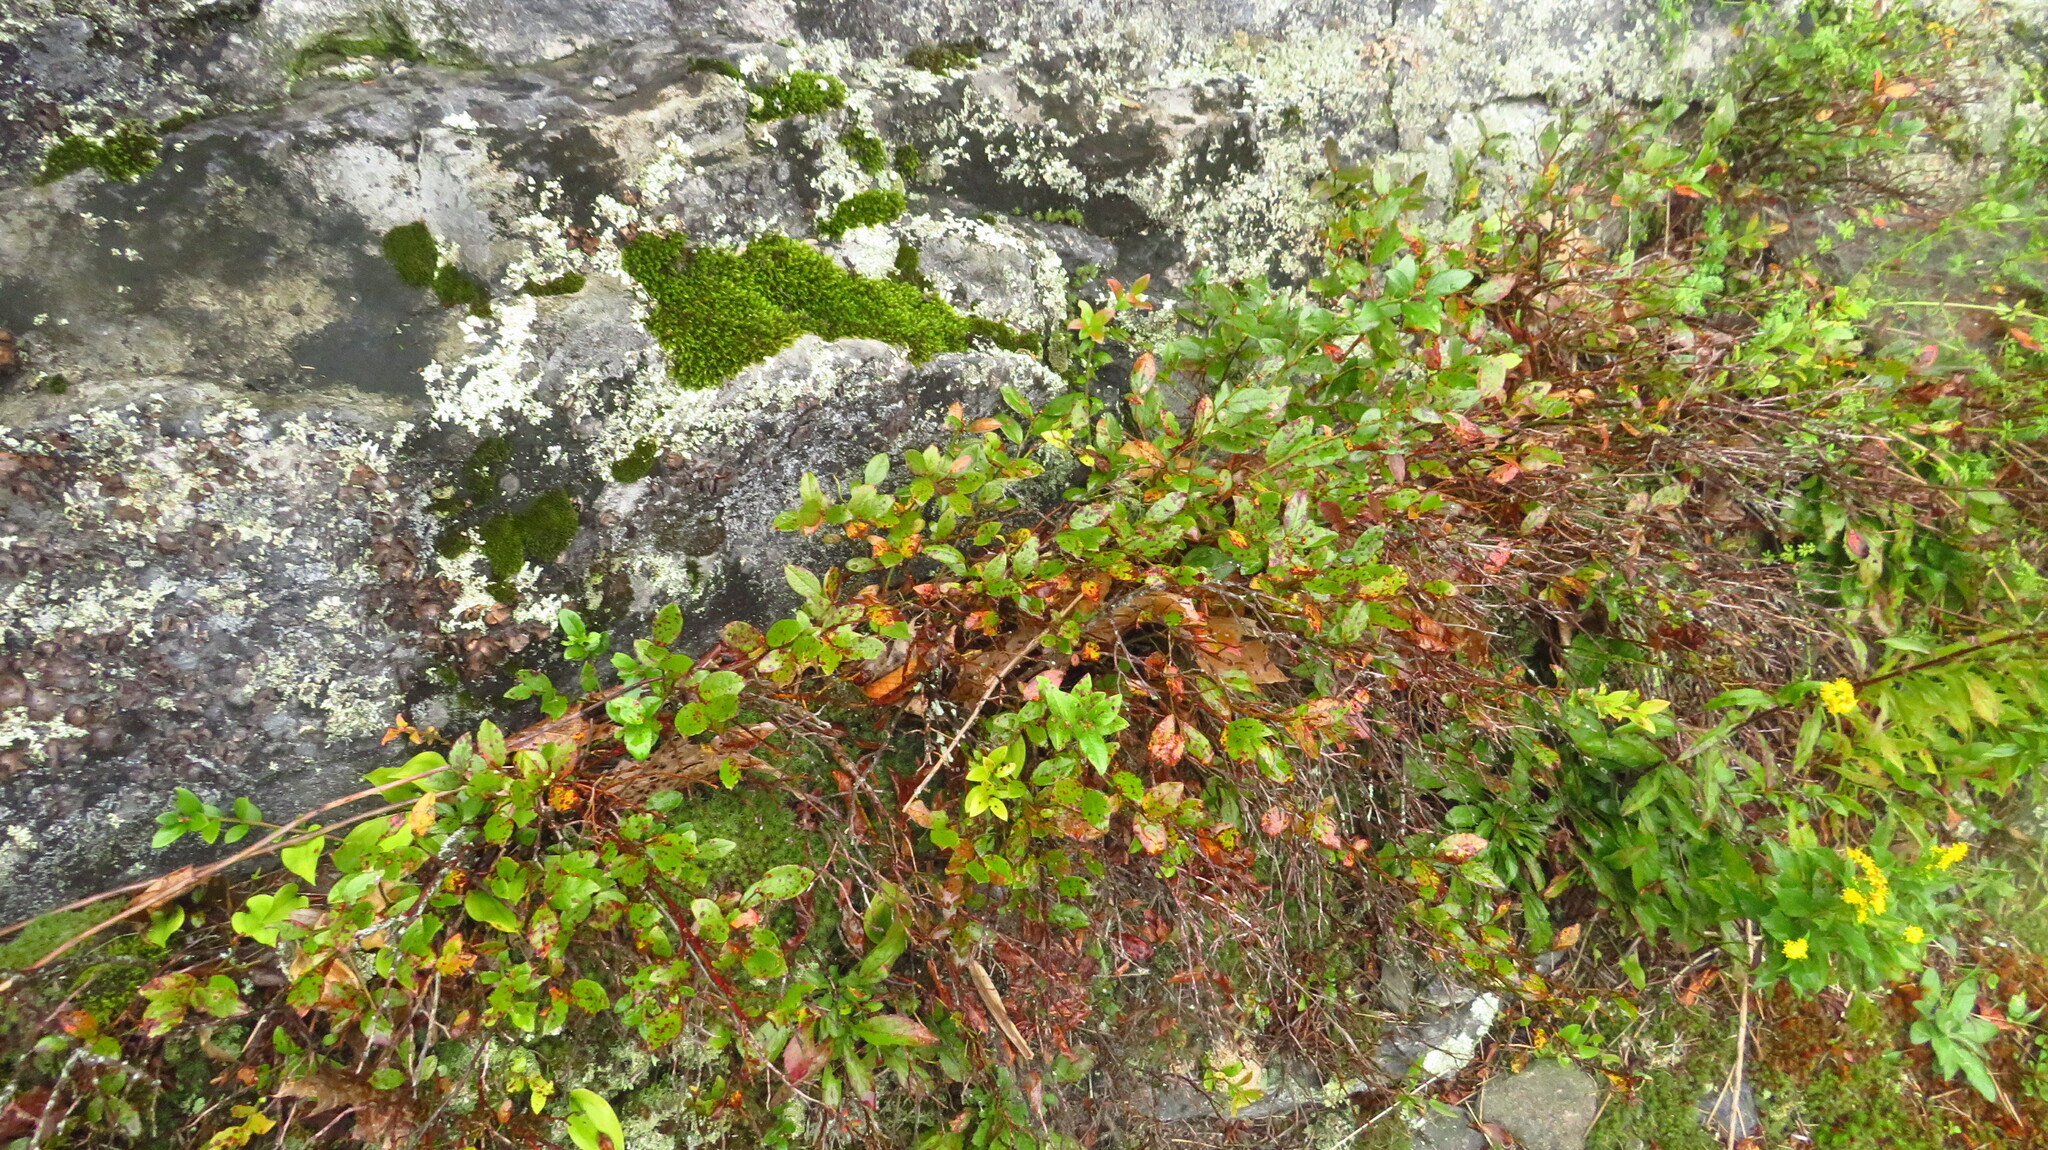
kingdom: Plantae
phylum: Tracheophyta
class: Magnoliopsida
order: Ericales
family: Ericaceae
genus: Vaccinium
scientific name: Vaccinium angustifolium
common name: Early lowbush blueberry
